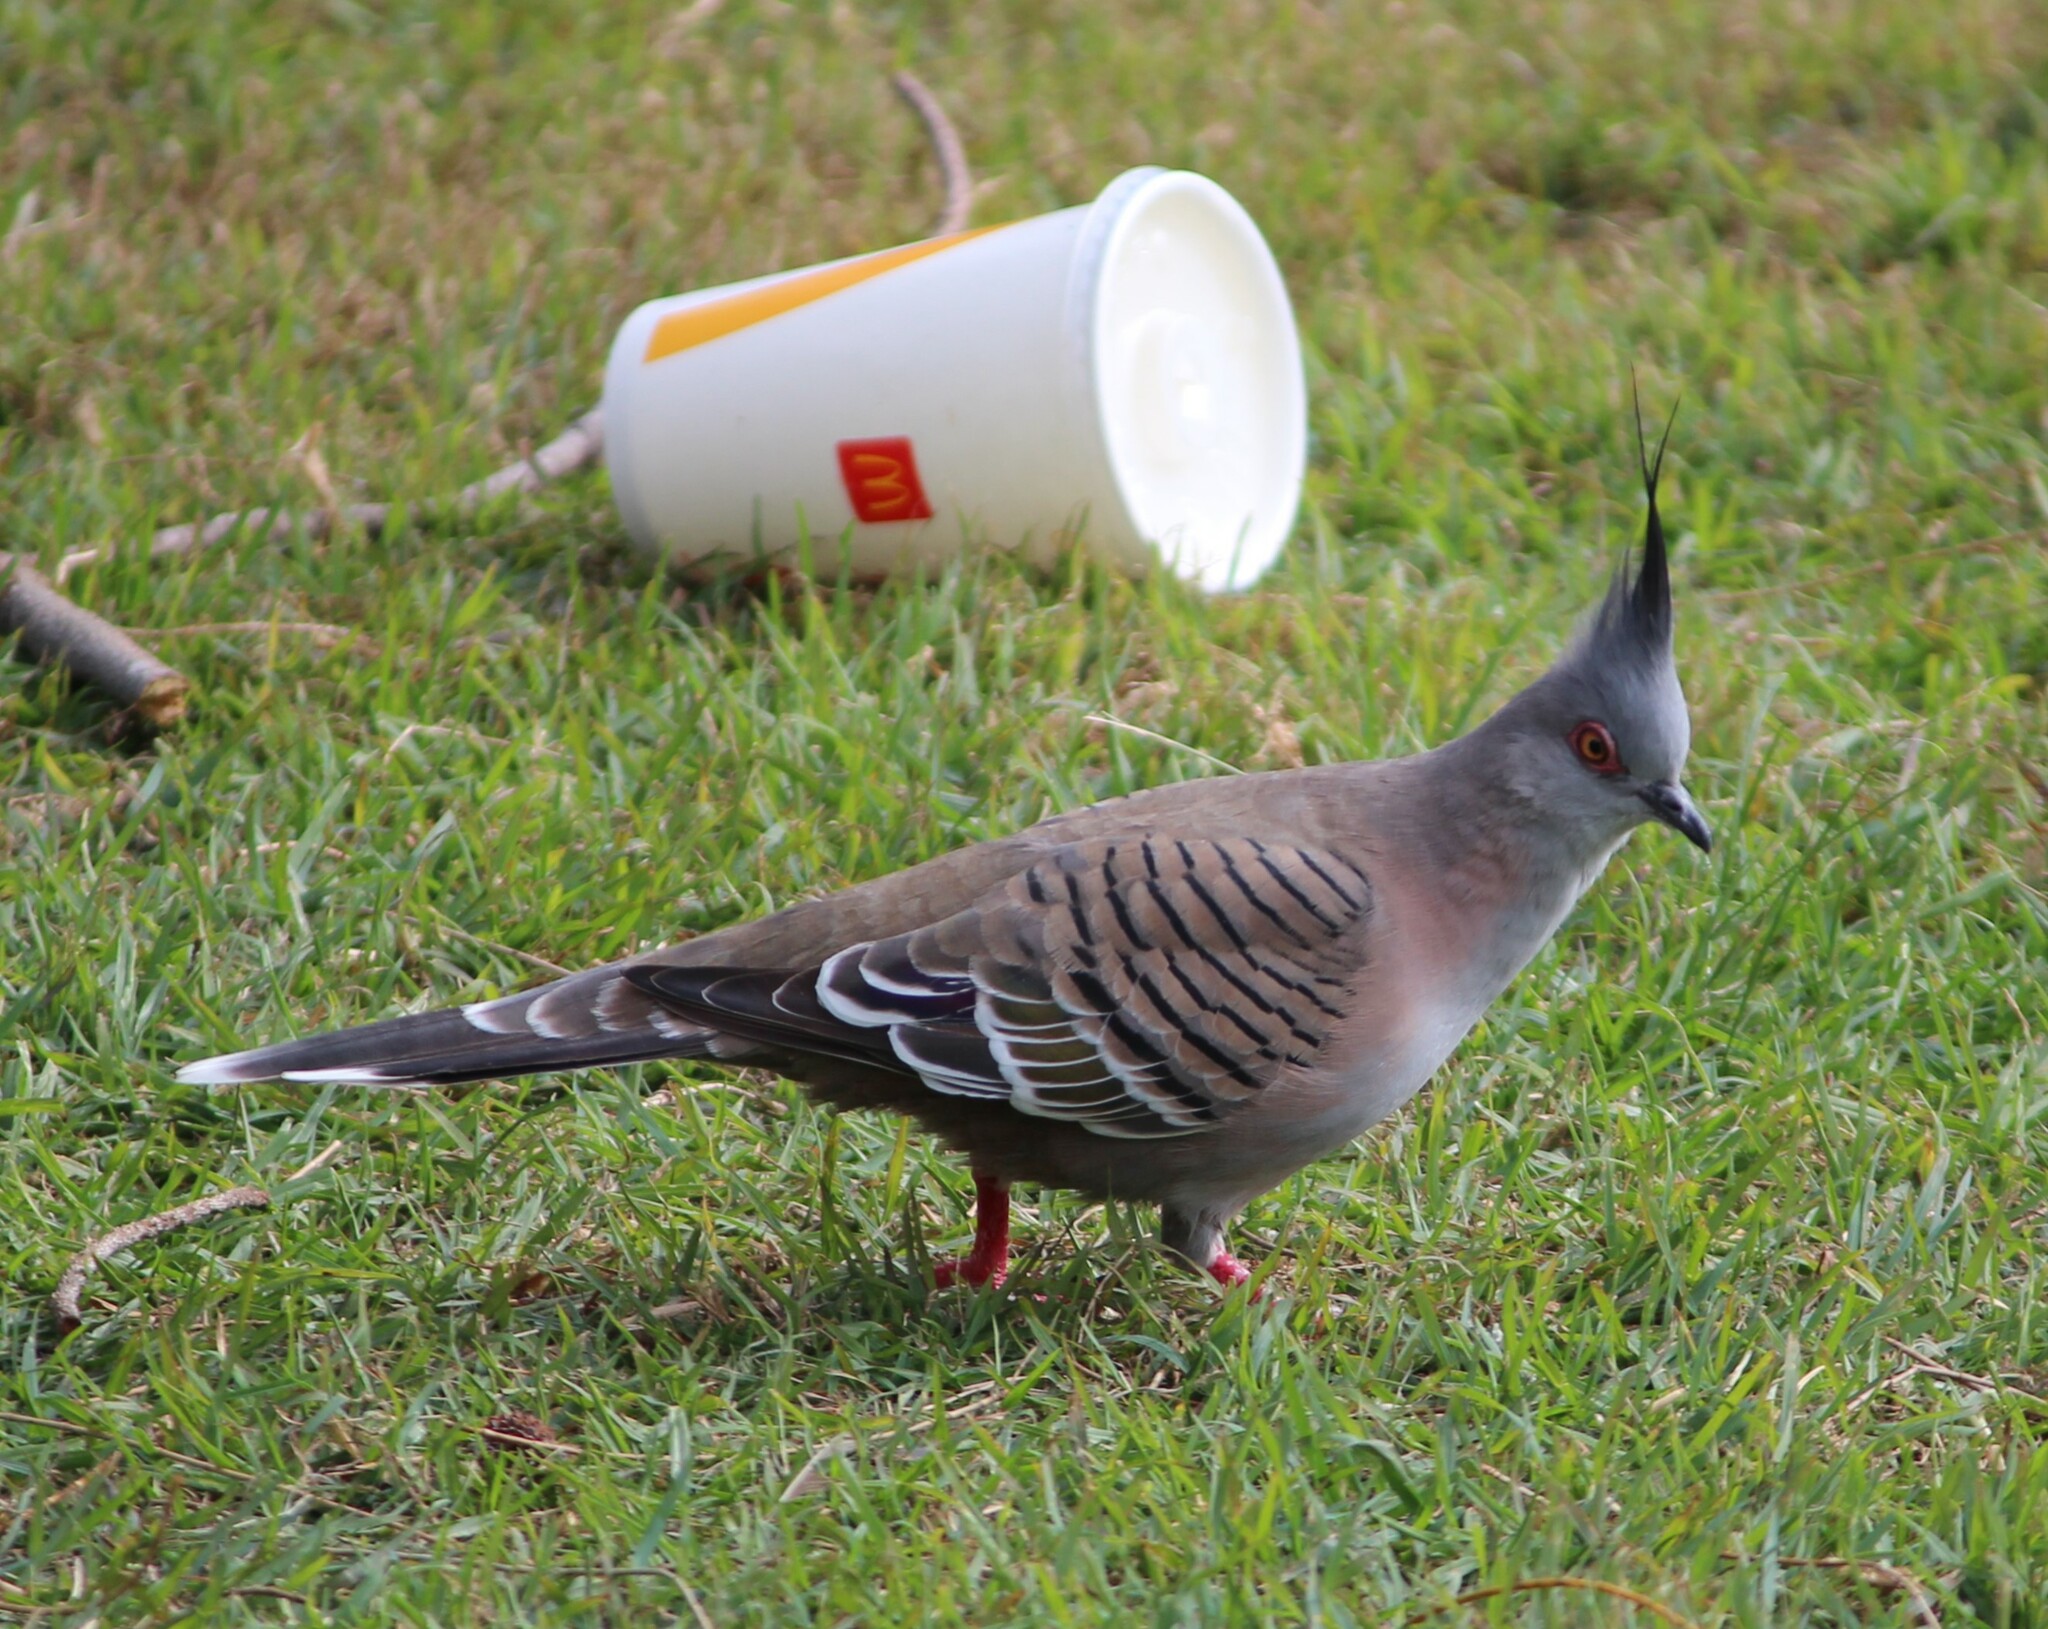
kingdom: Animalia
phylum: Chordata
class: Aves
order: Columbiformes
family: Columbidae
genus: Ocyphaps
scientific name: Ocyphaps lophotes
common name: Crested pigeon
